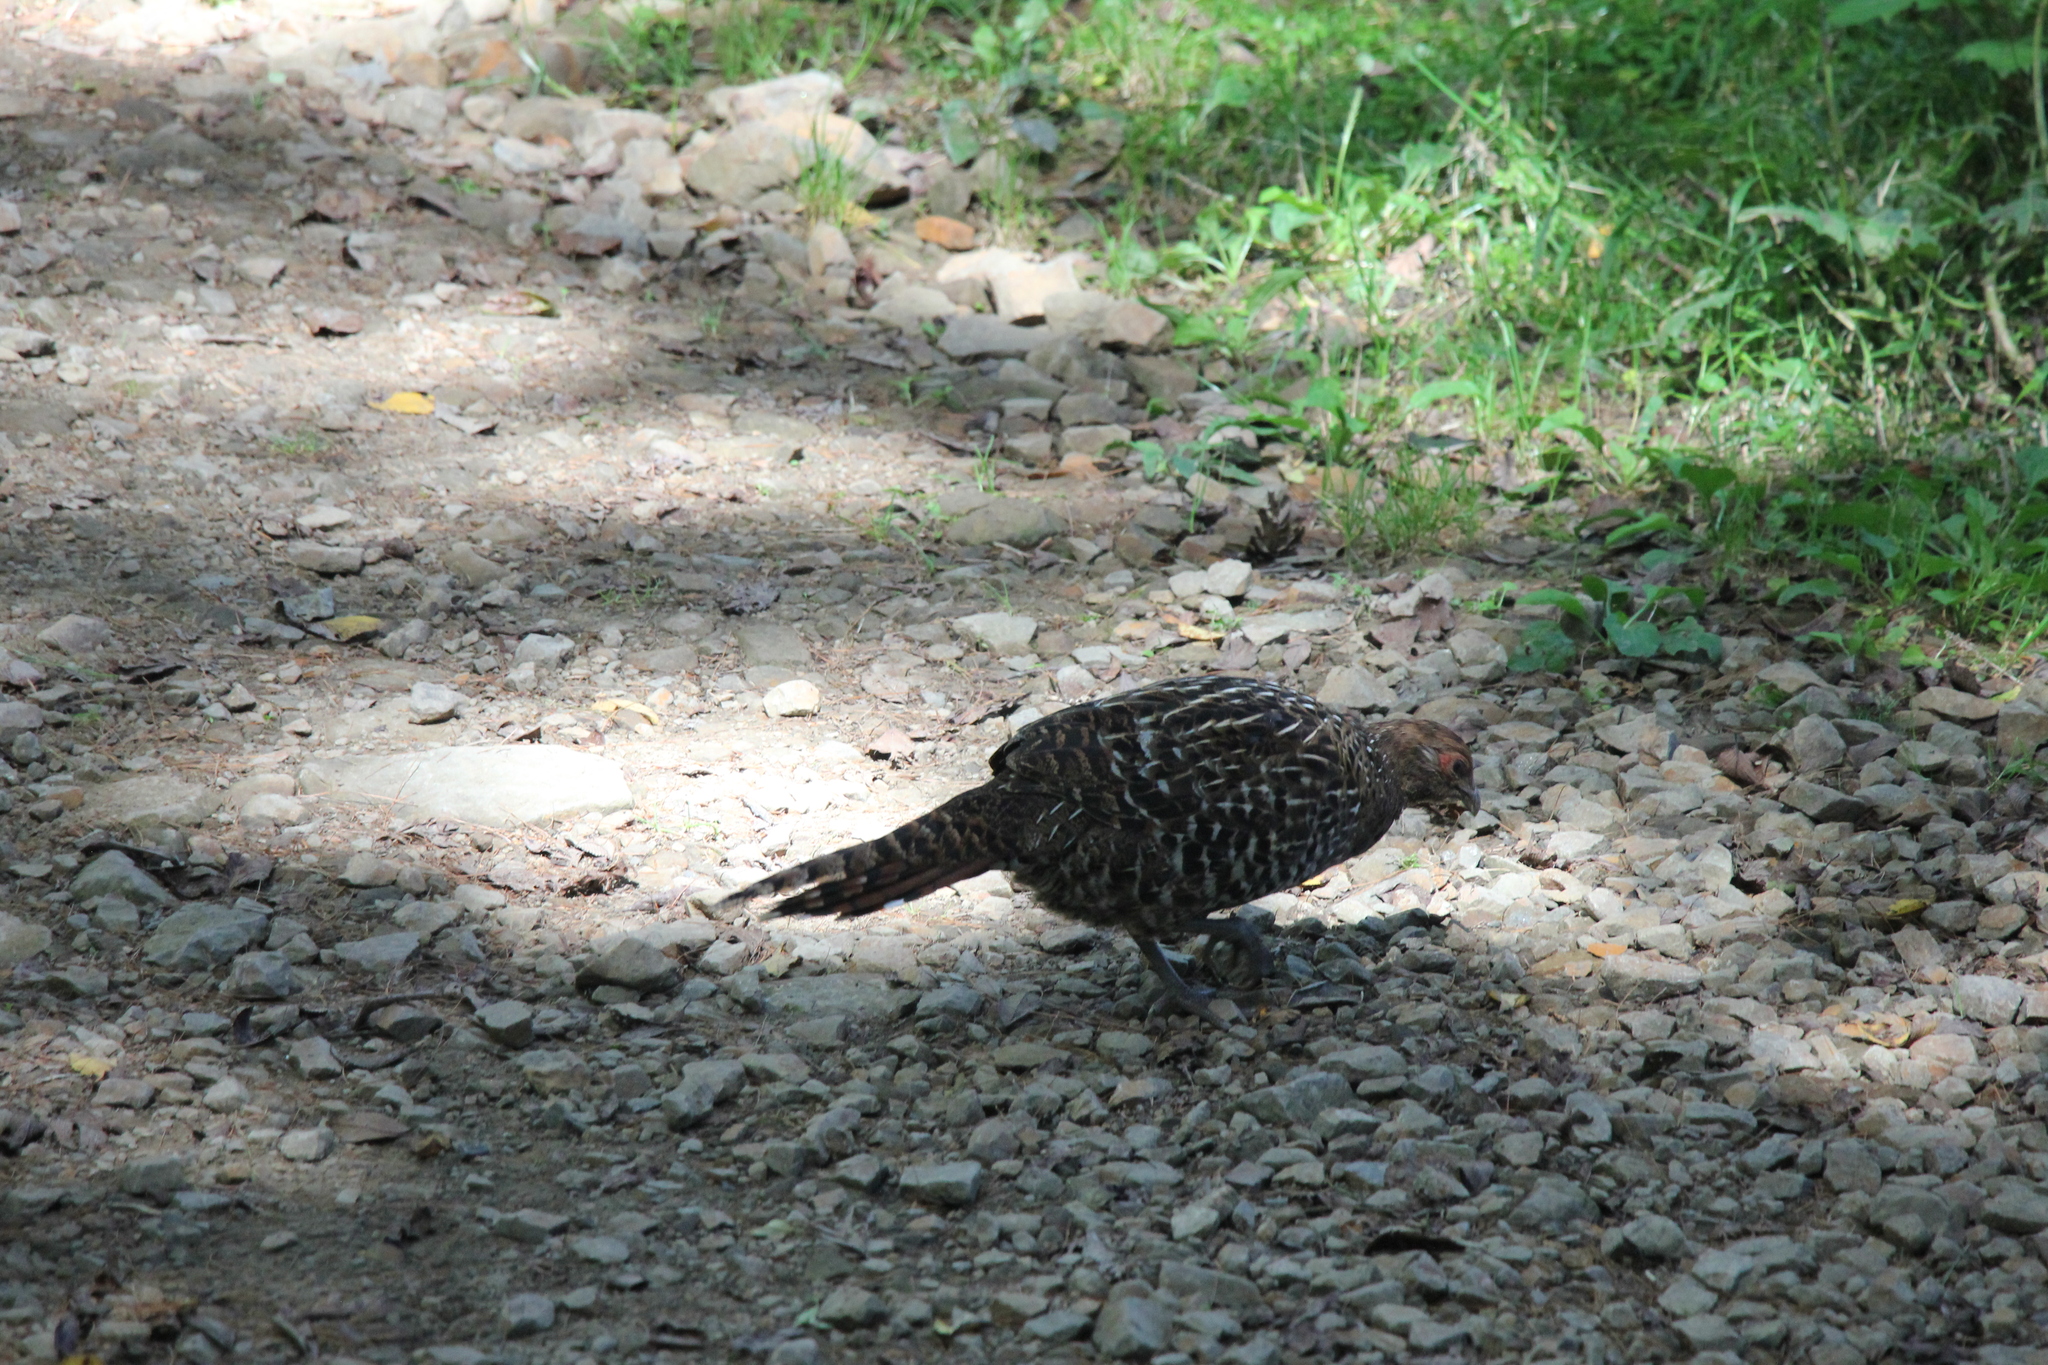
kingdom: Animalia
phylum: Chordata
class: Aves
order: Galliformes
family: Phasianidae
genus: Syrmaticus
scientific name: Syrmaticus mikado
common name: Mikado pheasant
